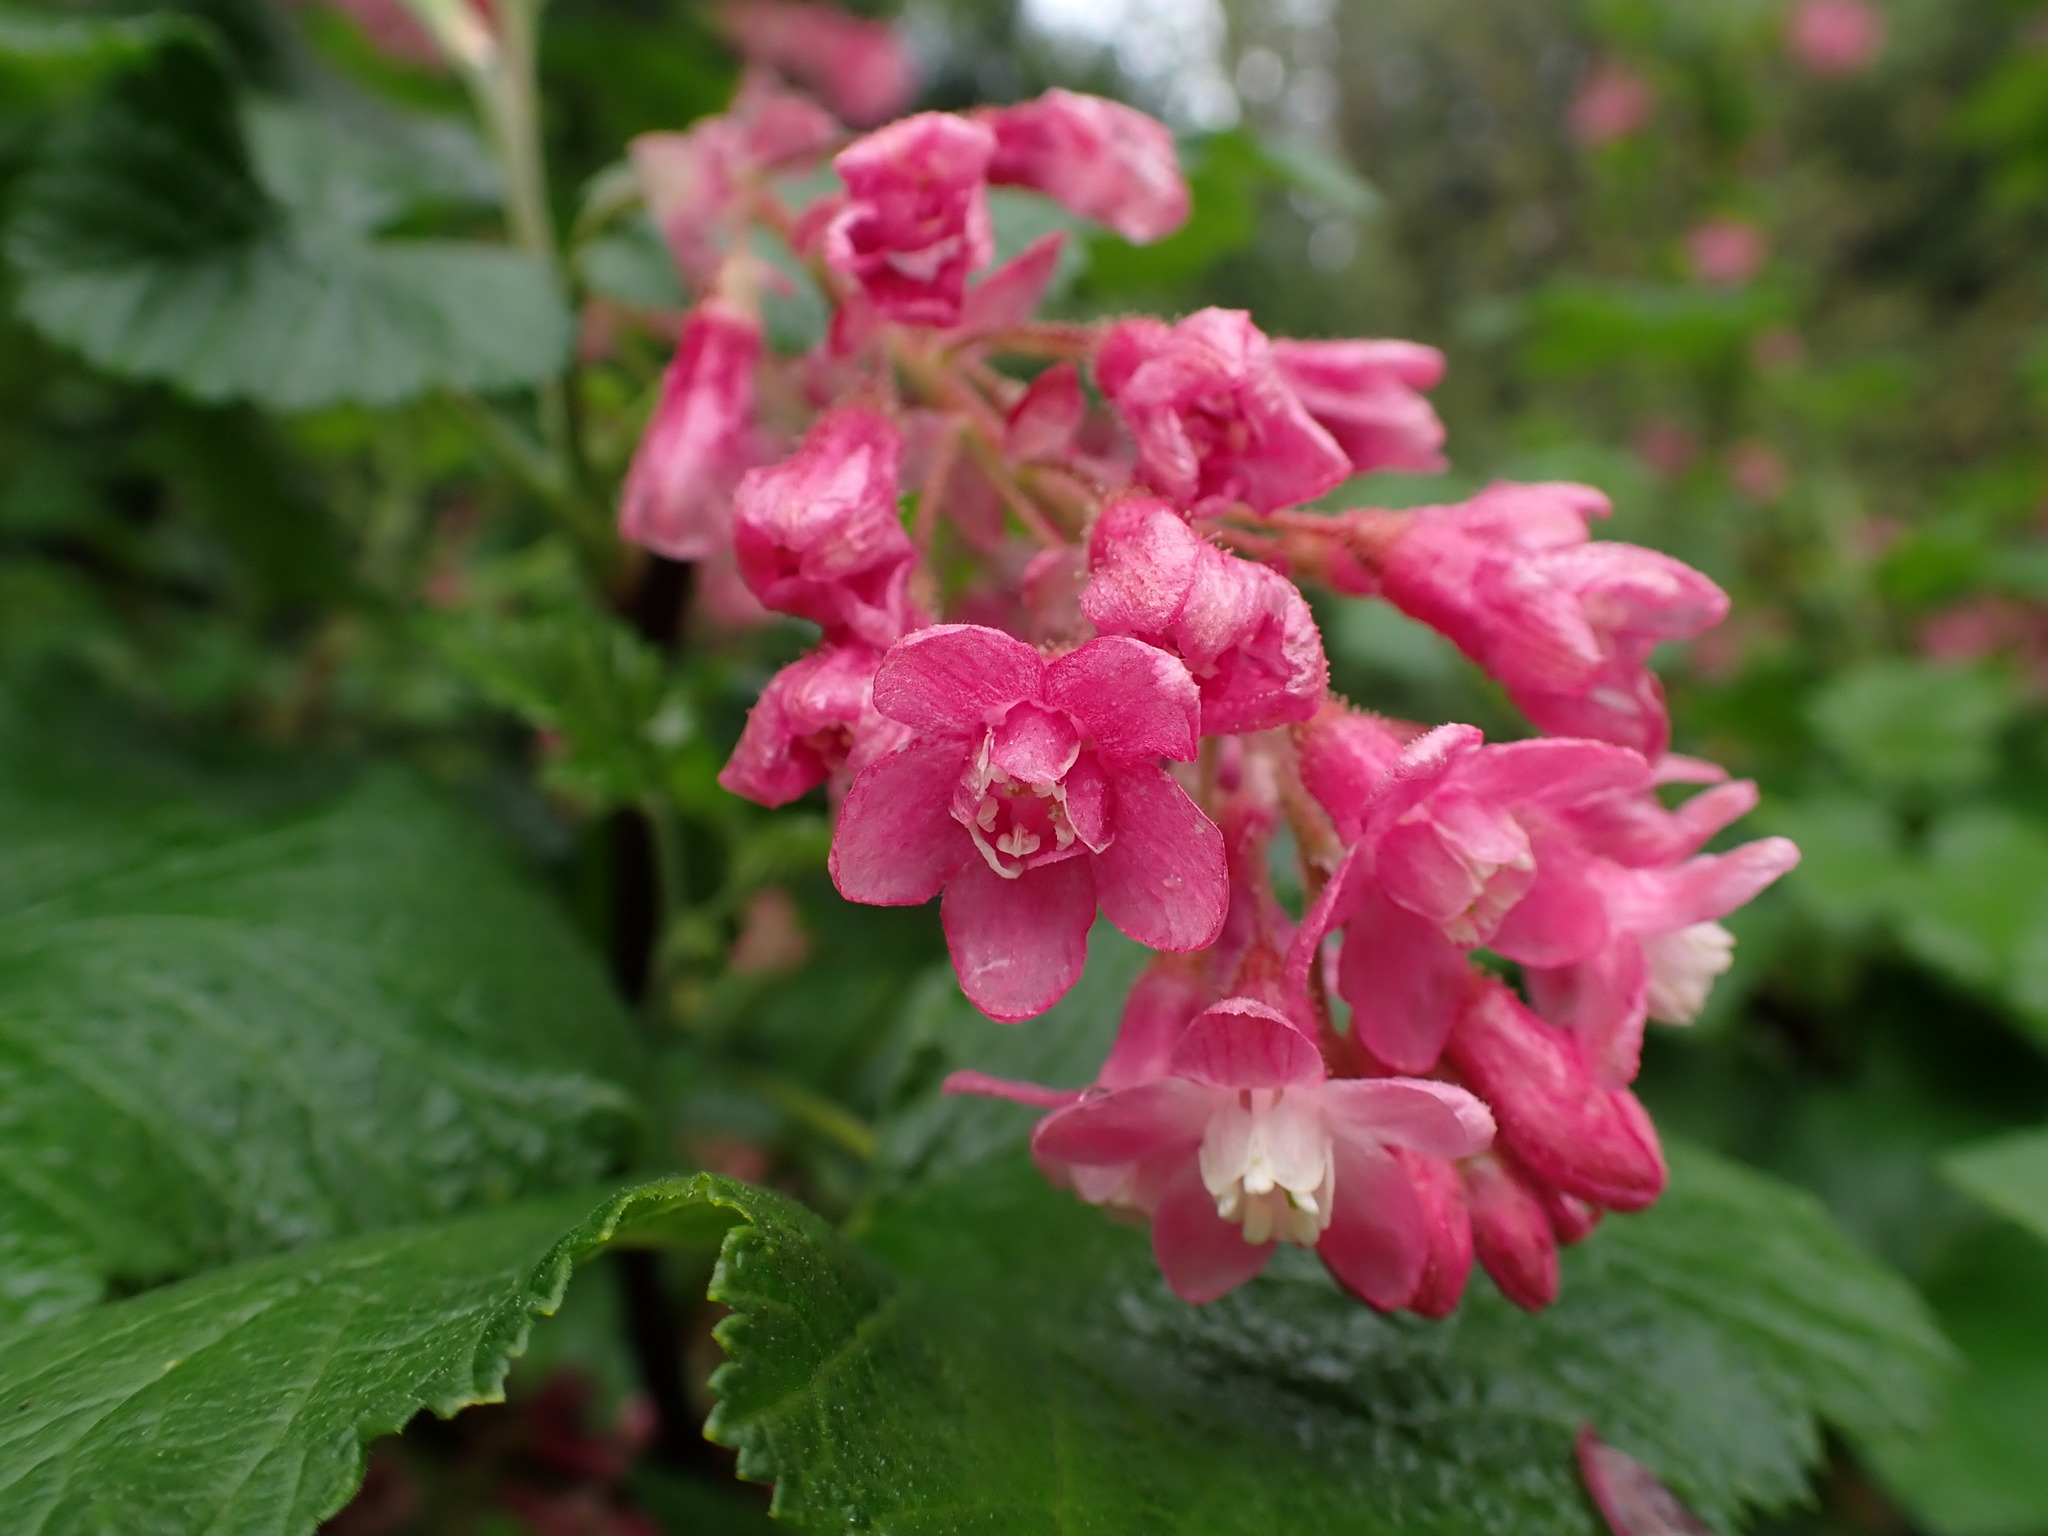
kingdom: Plantae
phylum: Tracheophyta
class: Magnoliopsida
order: Saxifragales
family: Grossulariaceae
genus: Ribes
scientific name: Ribes sanguineum
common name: Flowering currant
